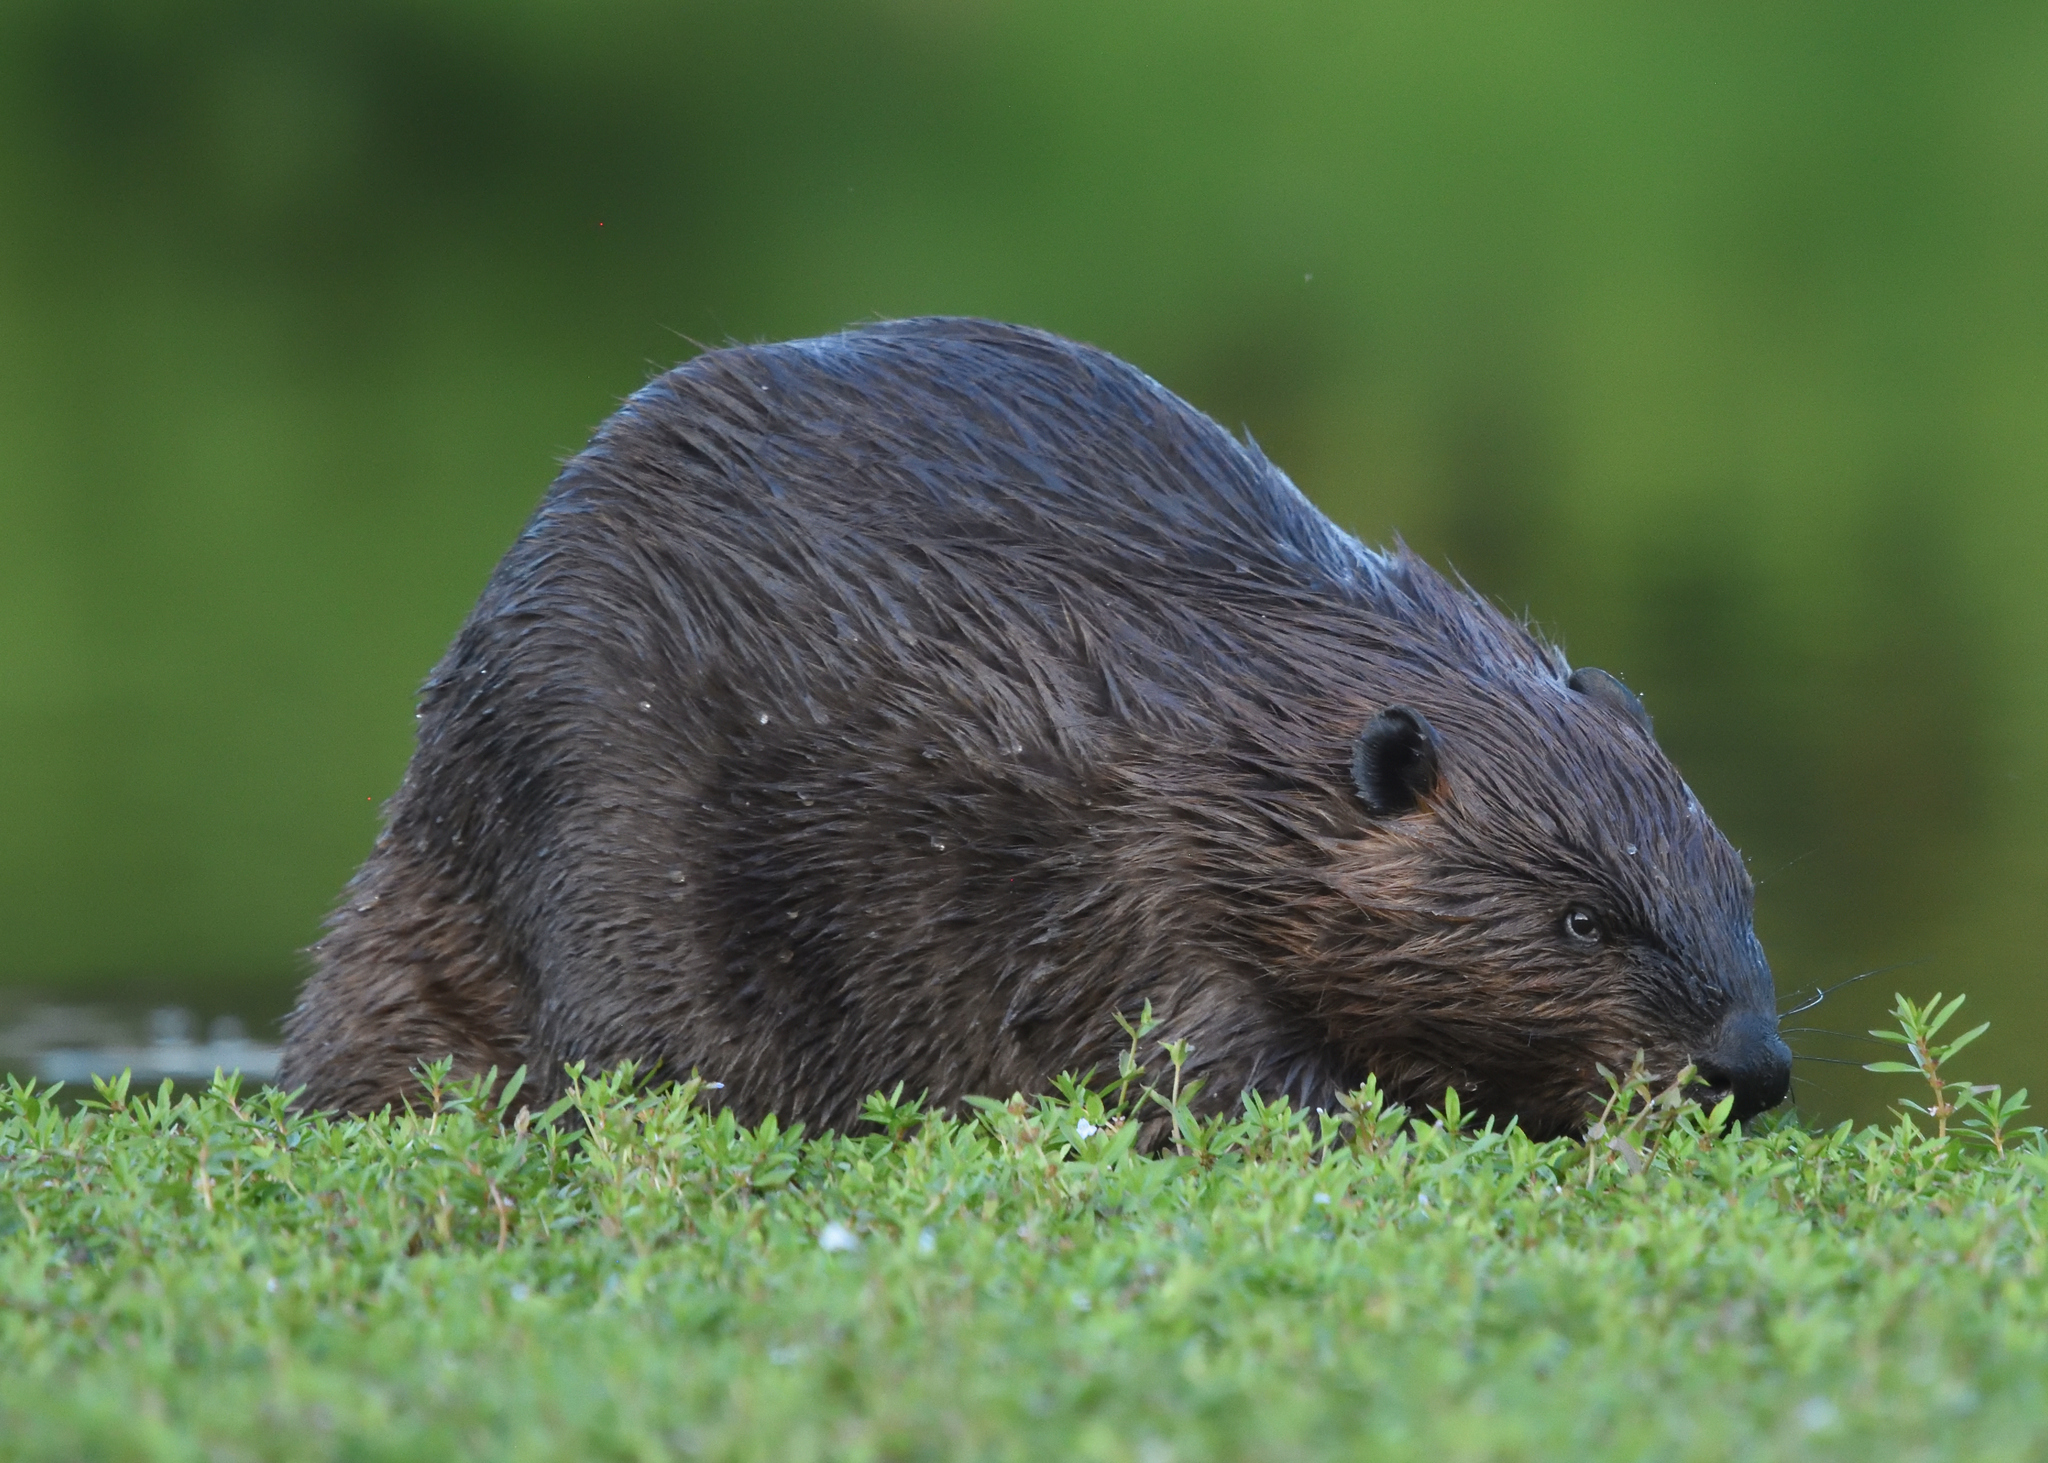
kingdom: Animalia
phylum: Chordata
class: Mammalia
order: Rodentia
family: Castoridae
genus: Castor
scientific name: Castor canadensis
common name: American beaver
